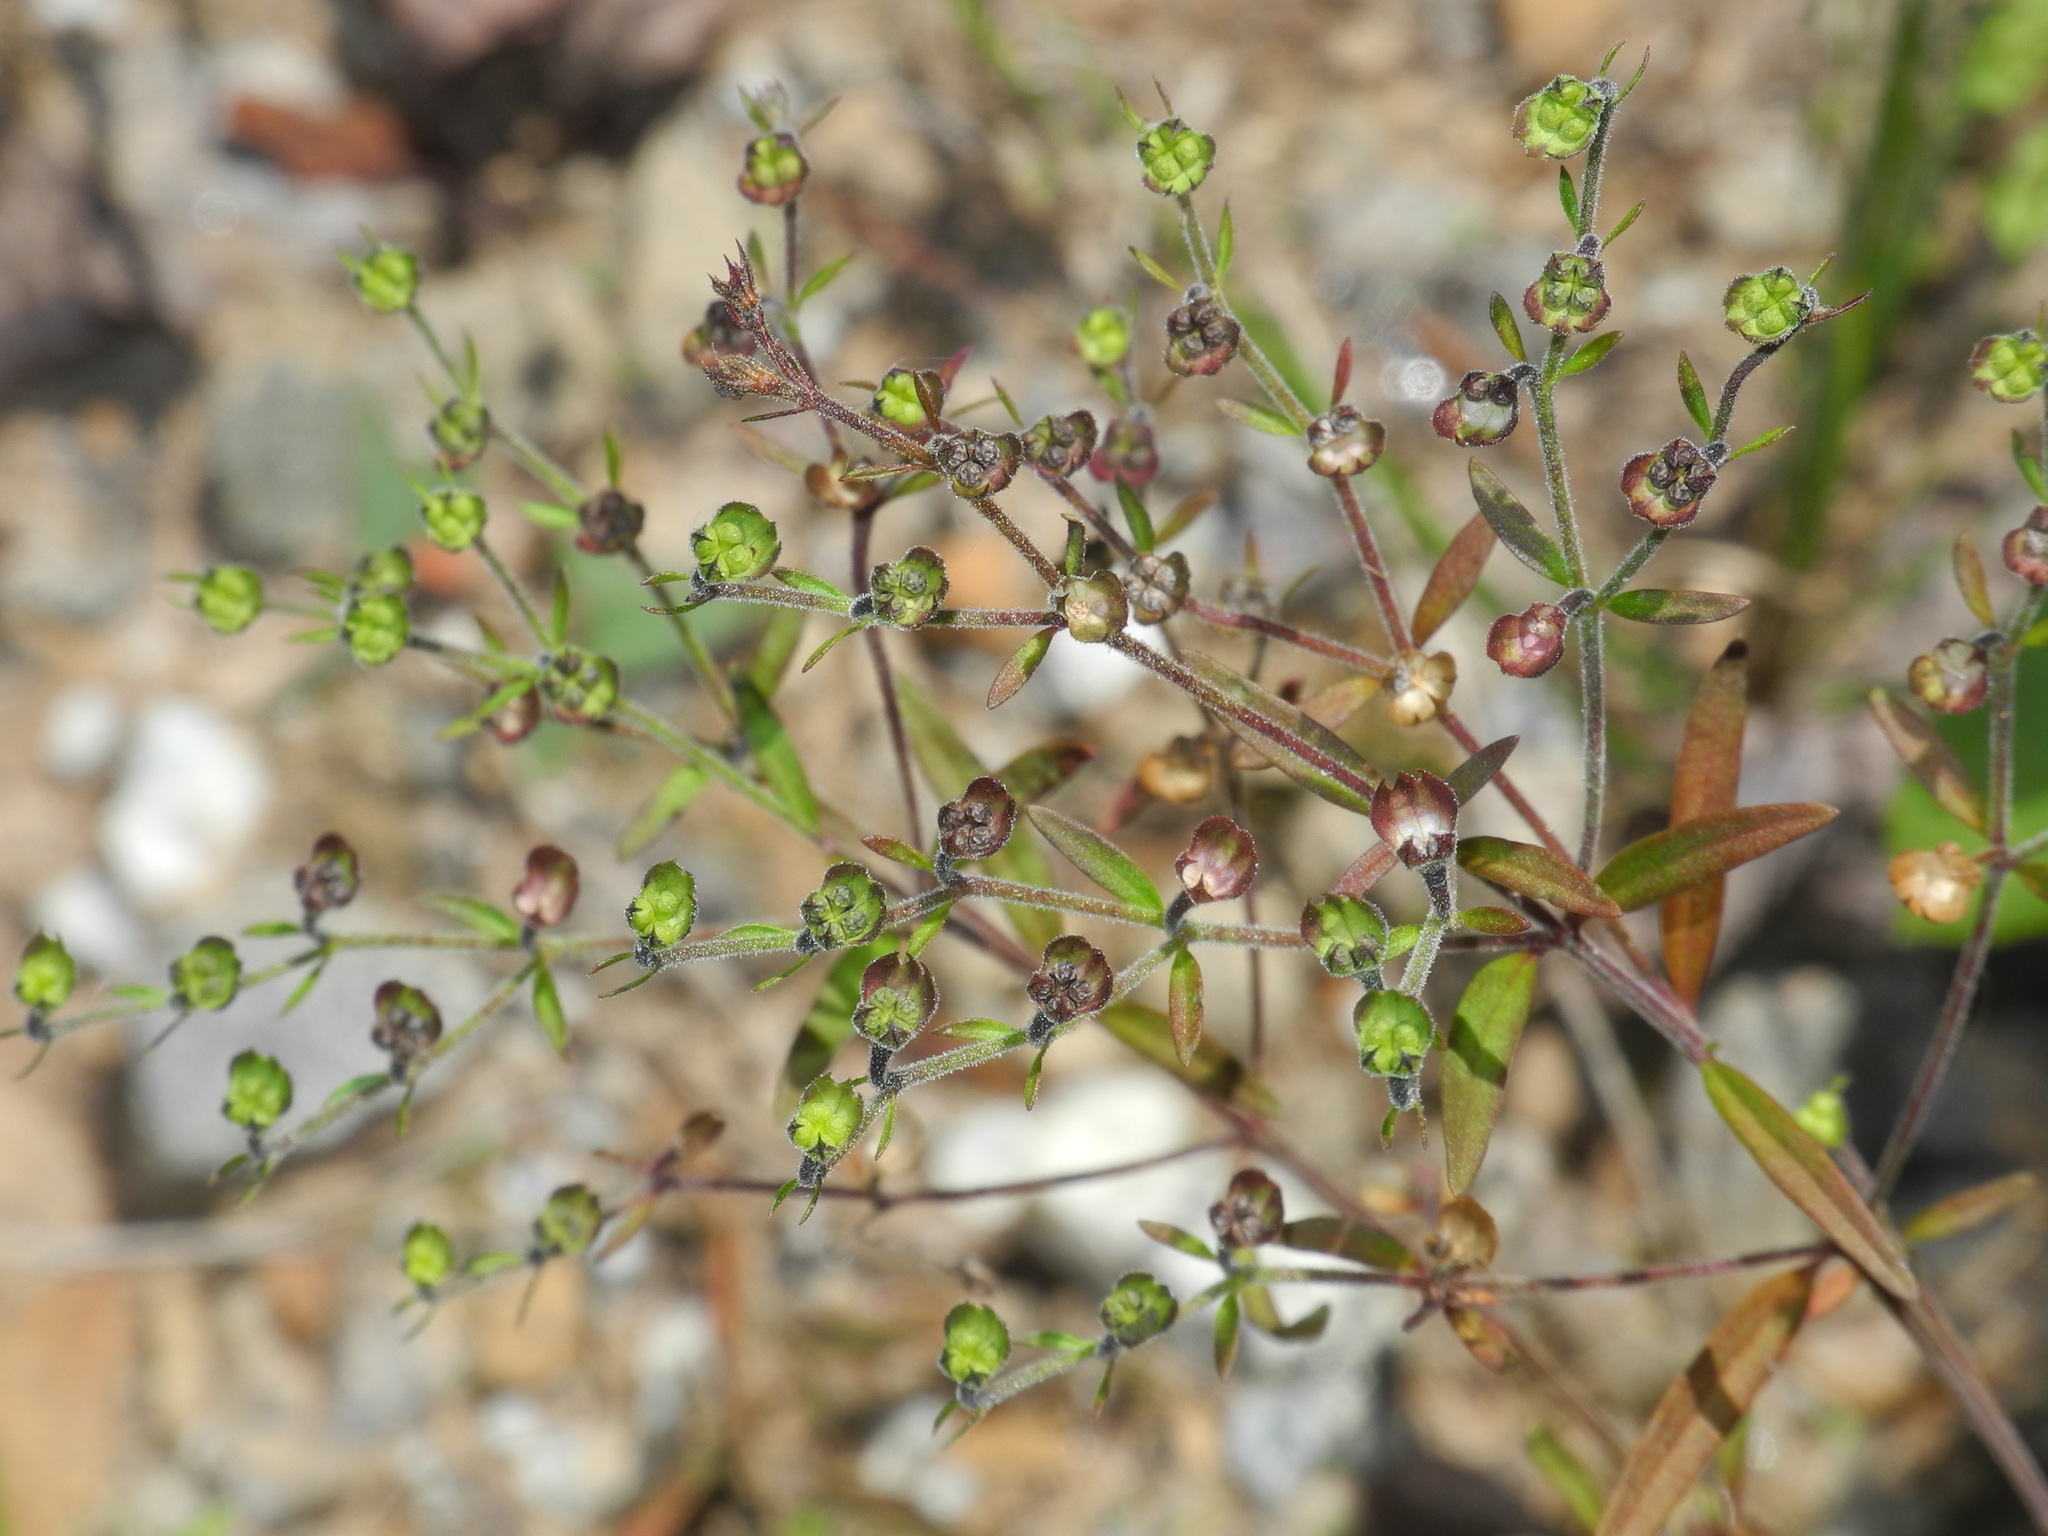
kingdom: Plantae
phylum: Tracheophyta
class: Magnoliopsida
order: Lamiales
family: Lamiaceae
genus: Trichostema
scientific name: Trichostema setaceum
